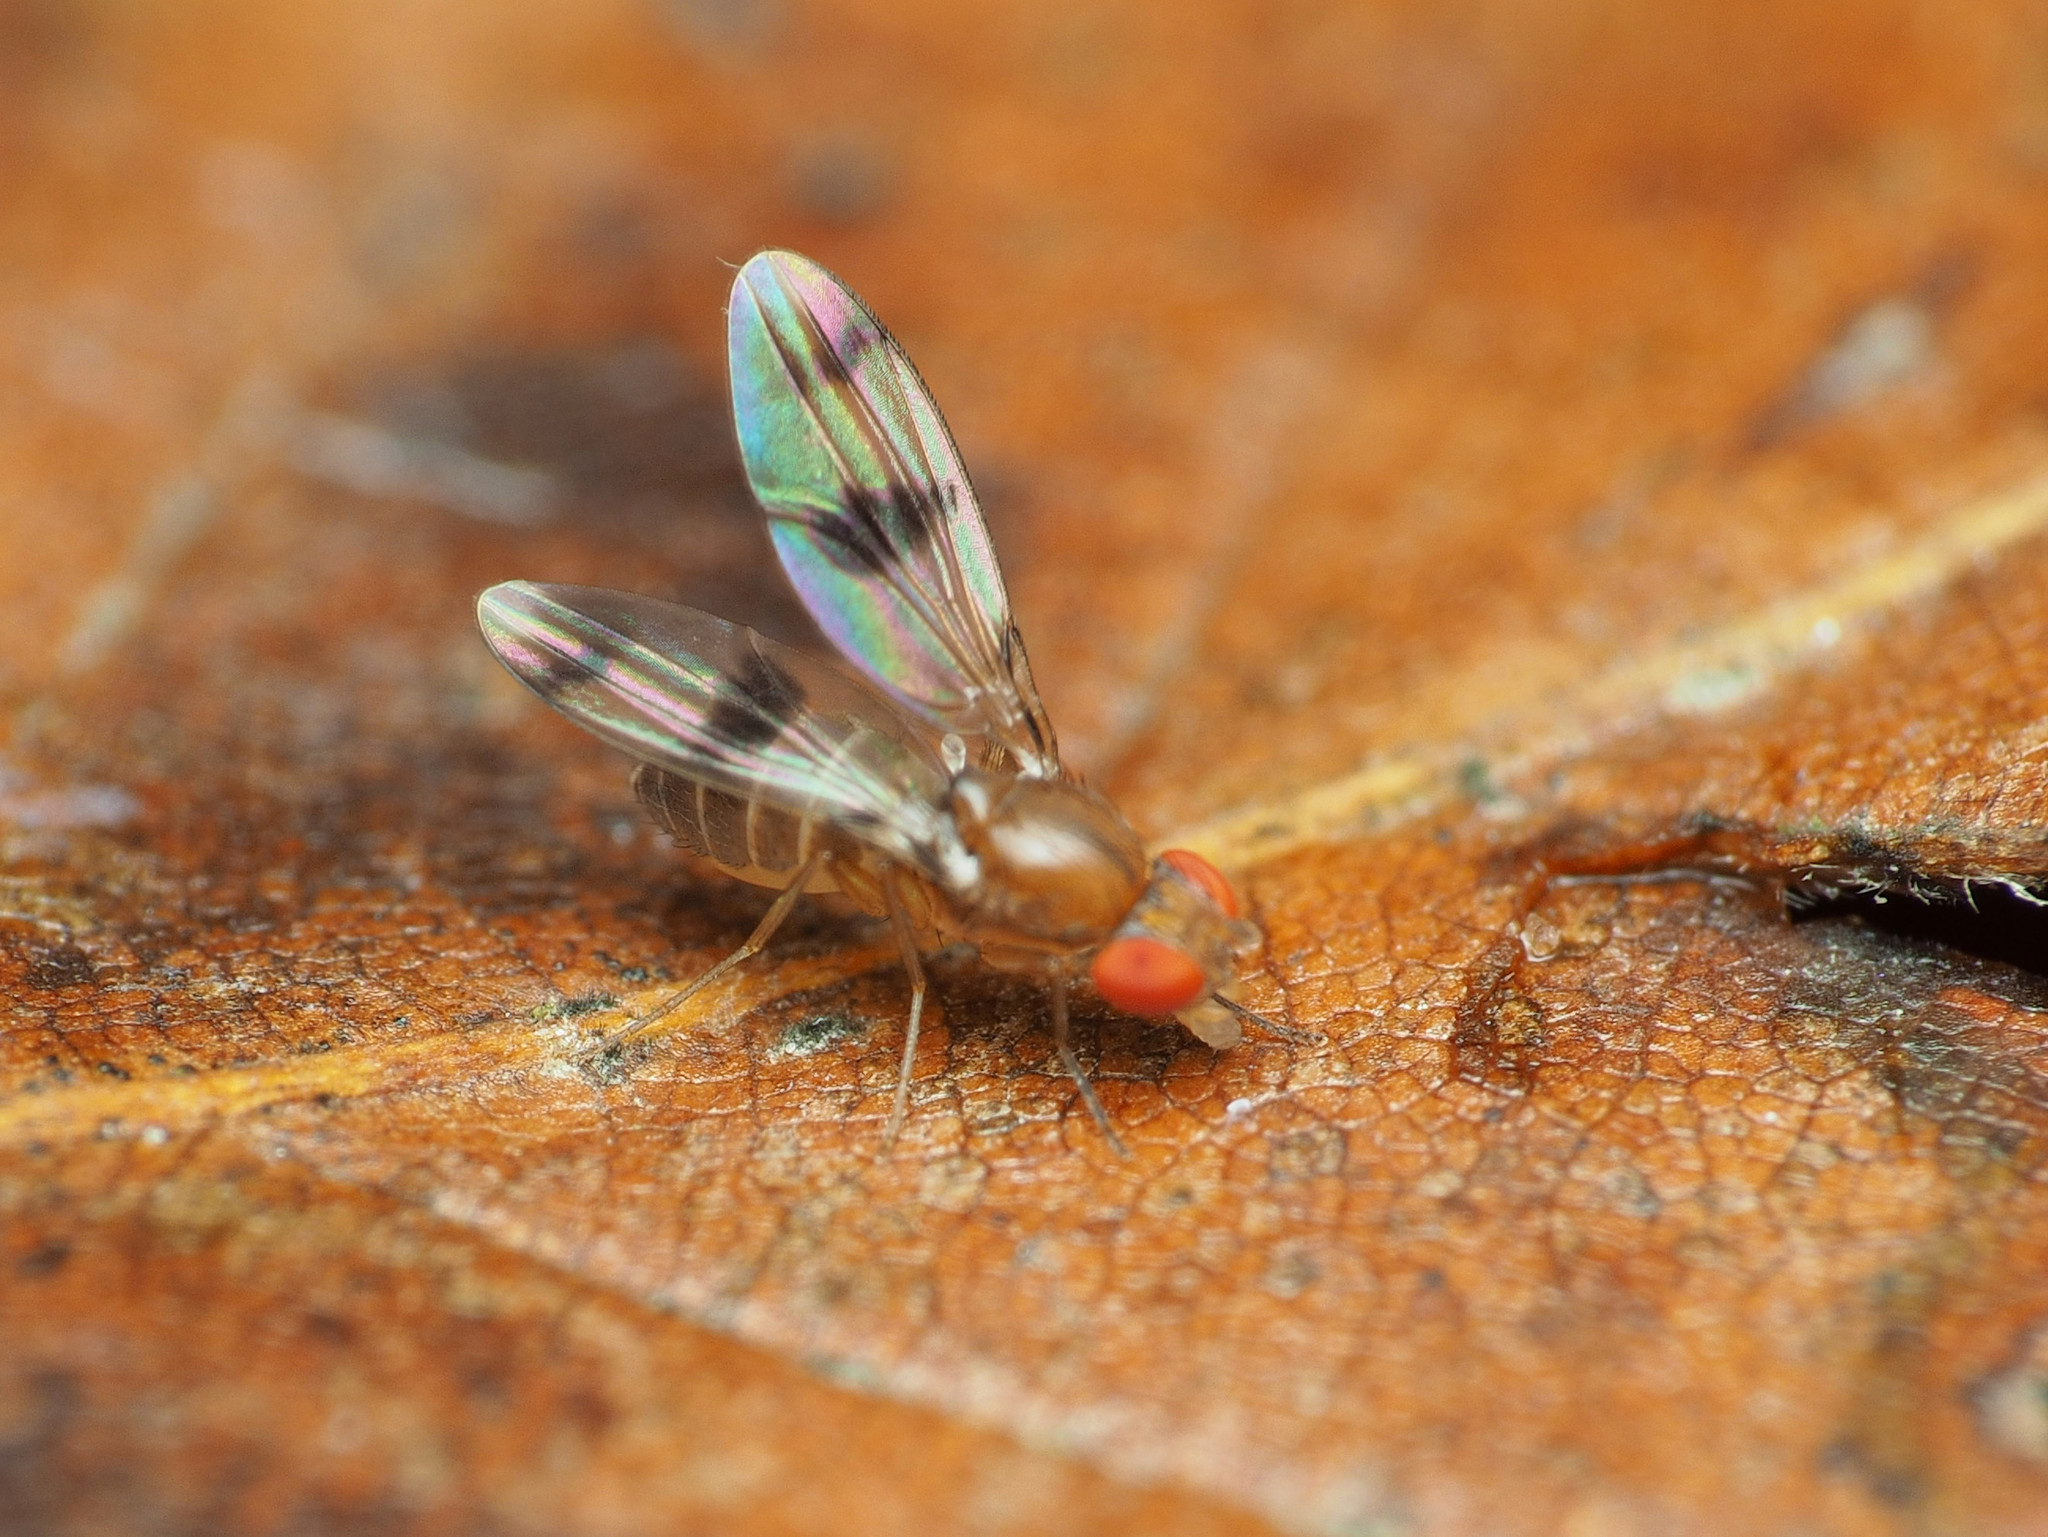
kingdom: Animalia
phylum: Arthropoda
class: Insecta
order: Diptera
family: Drosophilidae
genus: Chymomyza
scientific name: Chymomyza amoena
